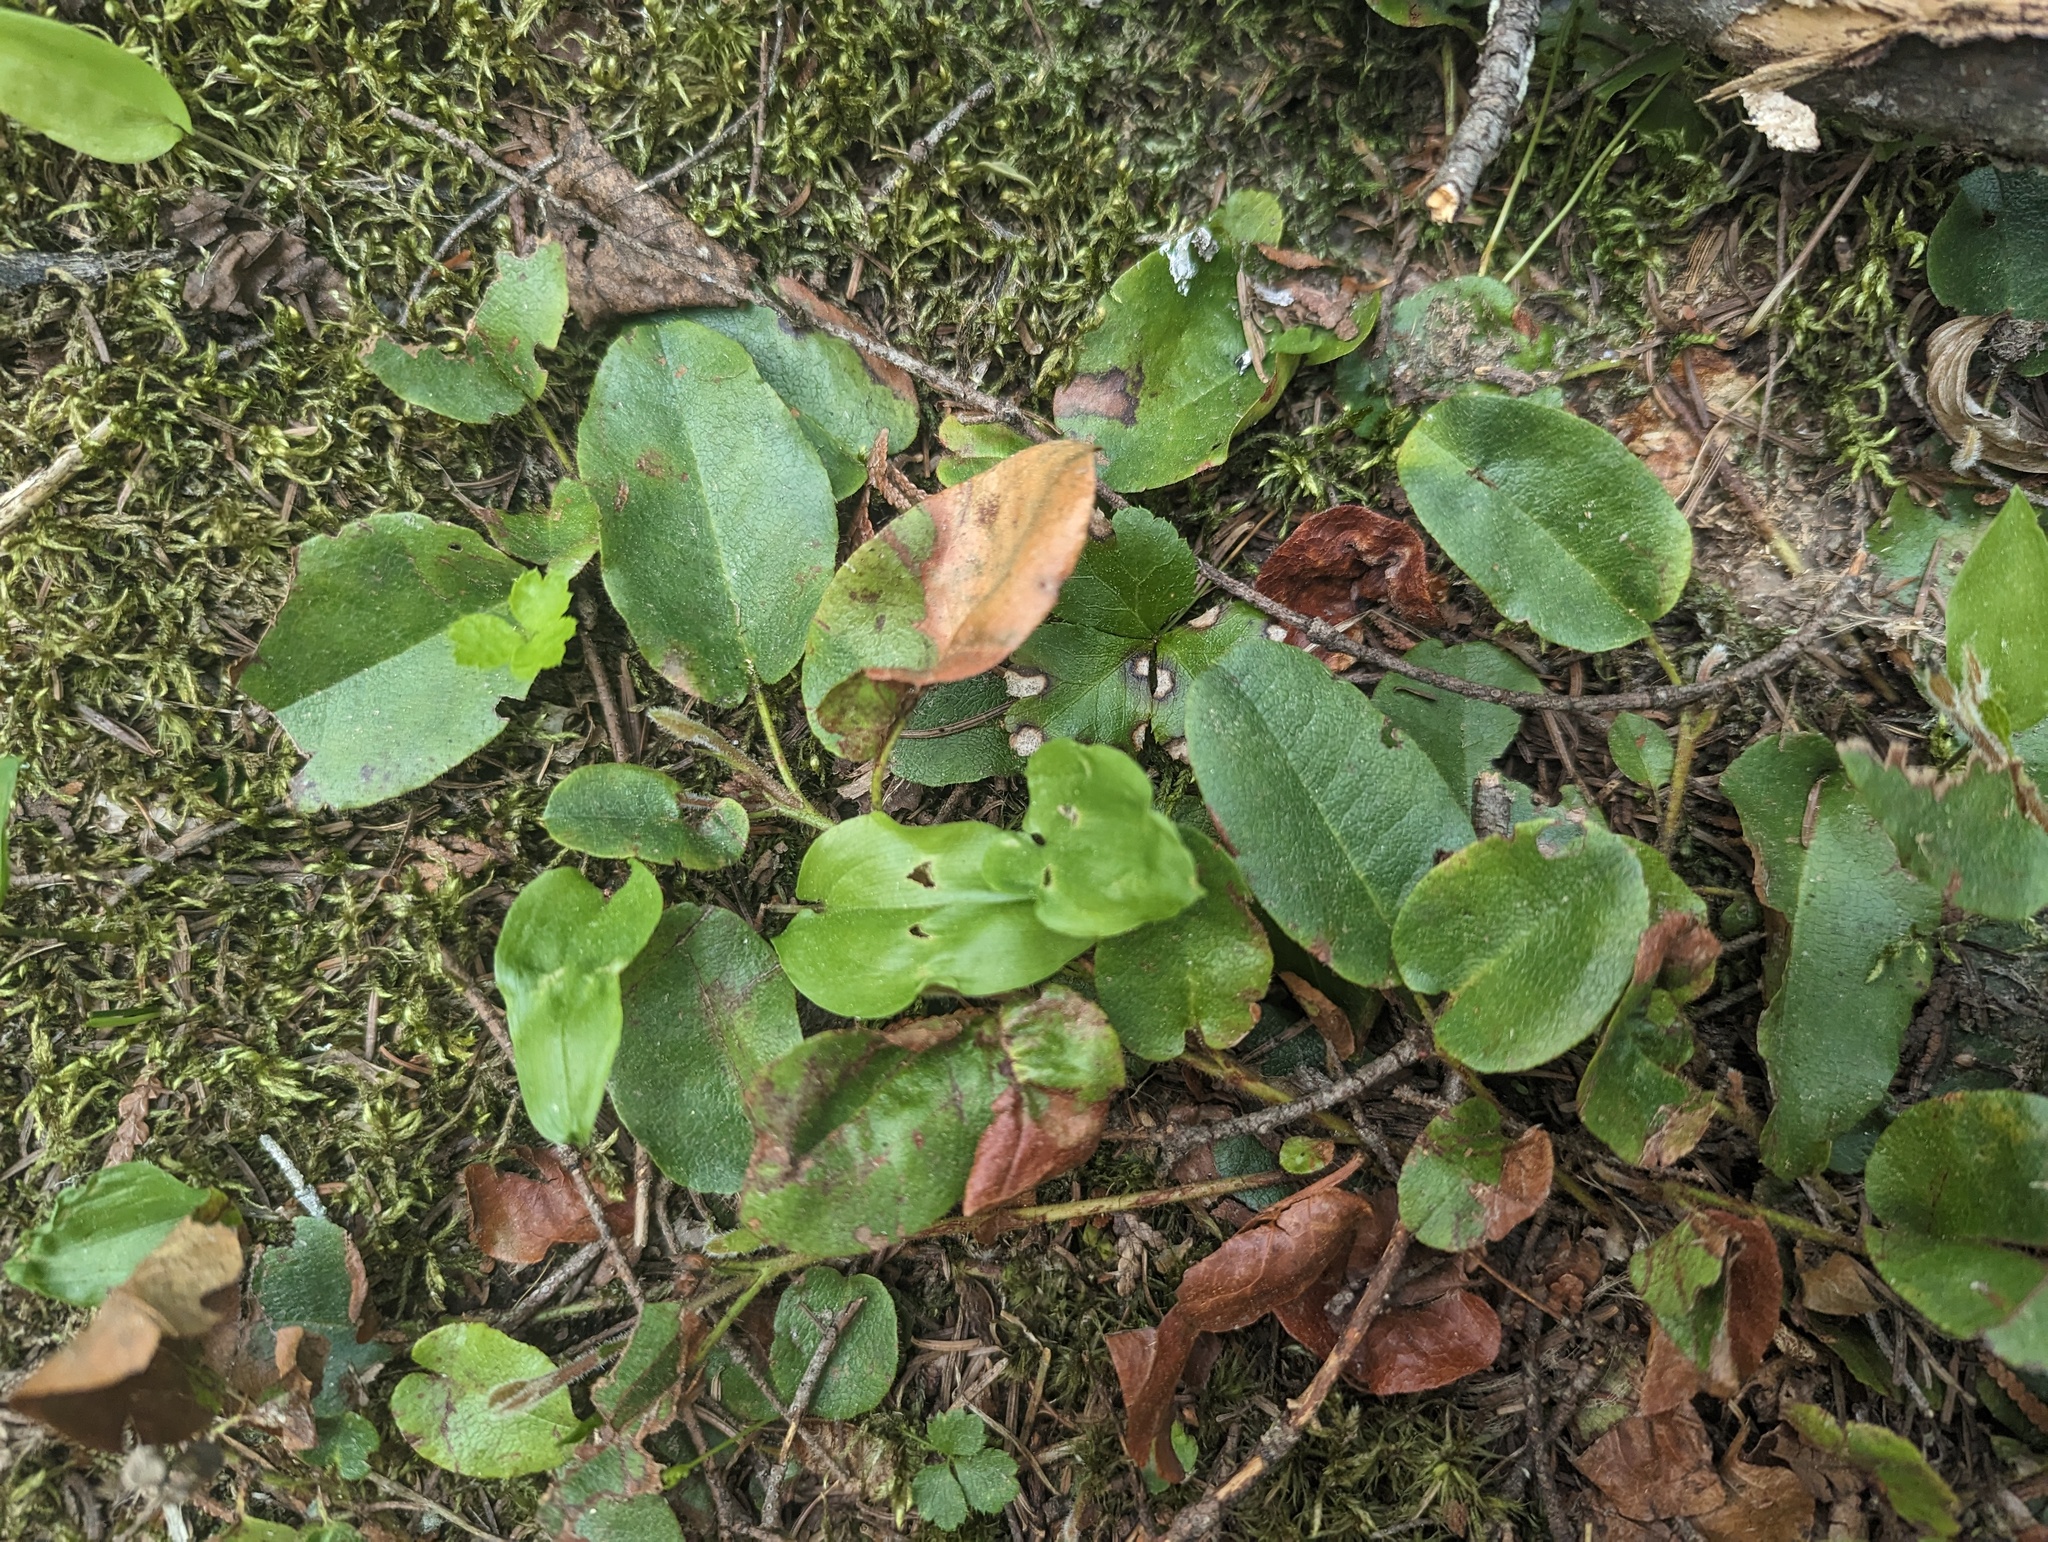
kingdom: Plantae
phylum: Tracheophyta
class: Magnoliopsida
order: Ericales
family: Ericaceae
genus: Epigaea
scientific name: Epigaea repens
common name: Gravelroot
